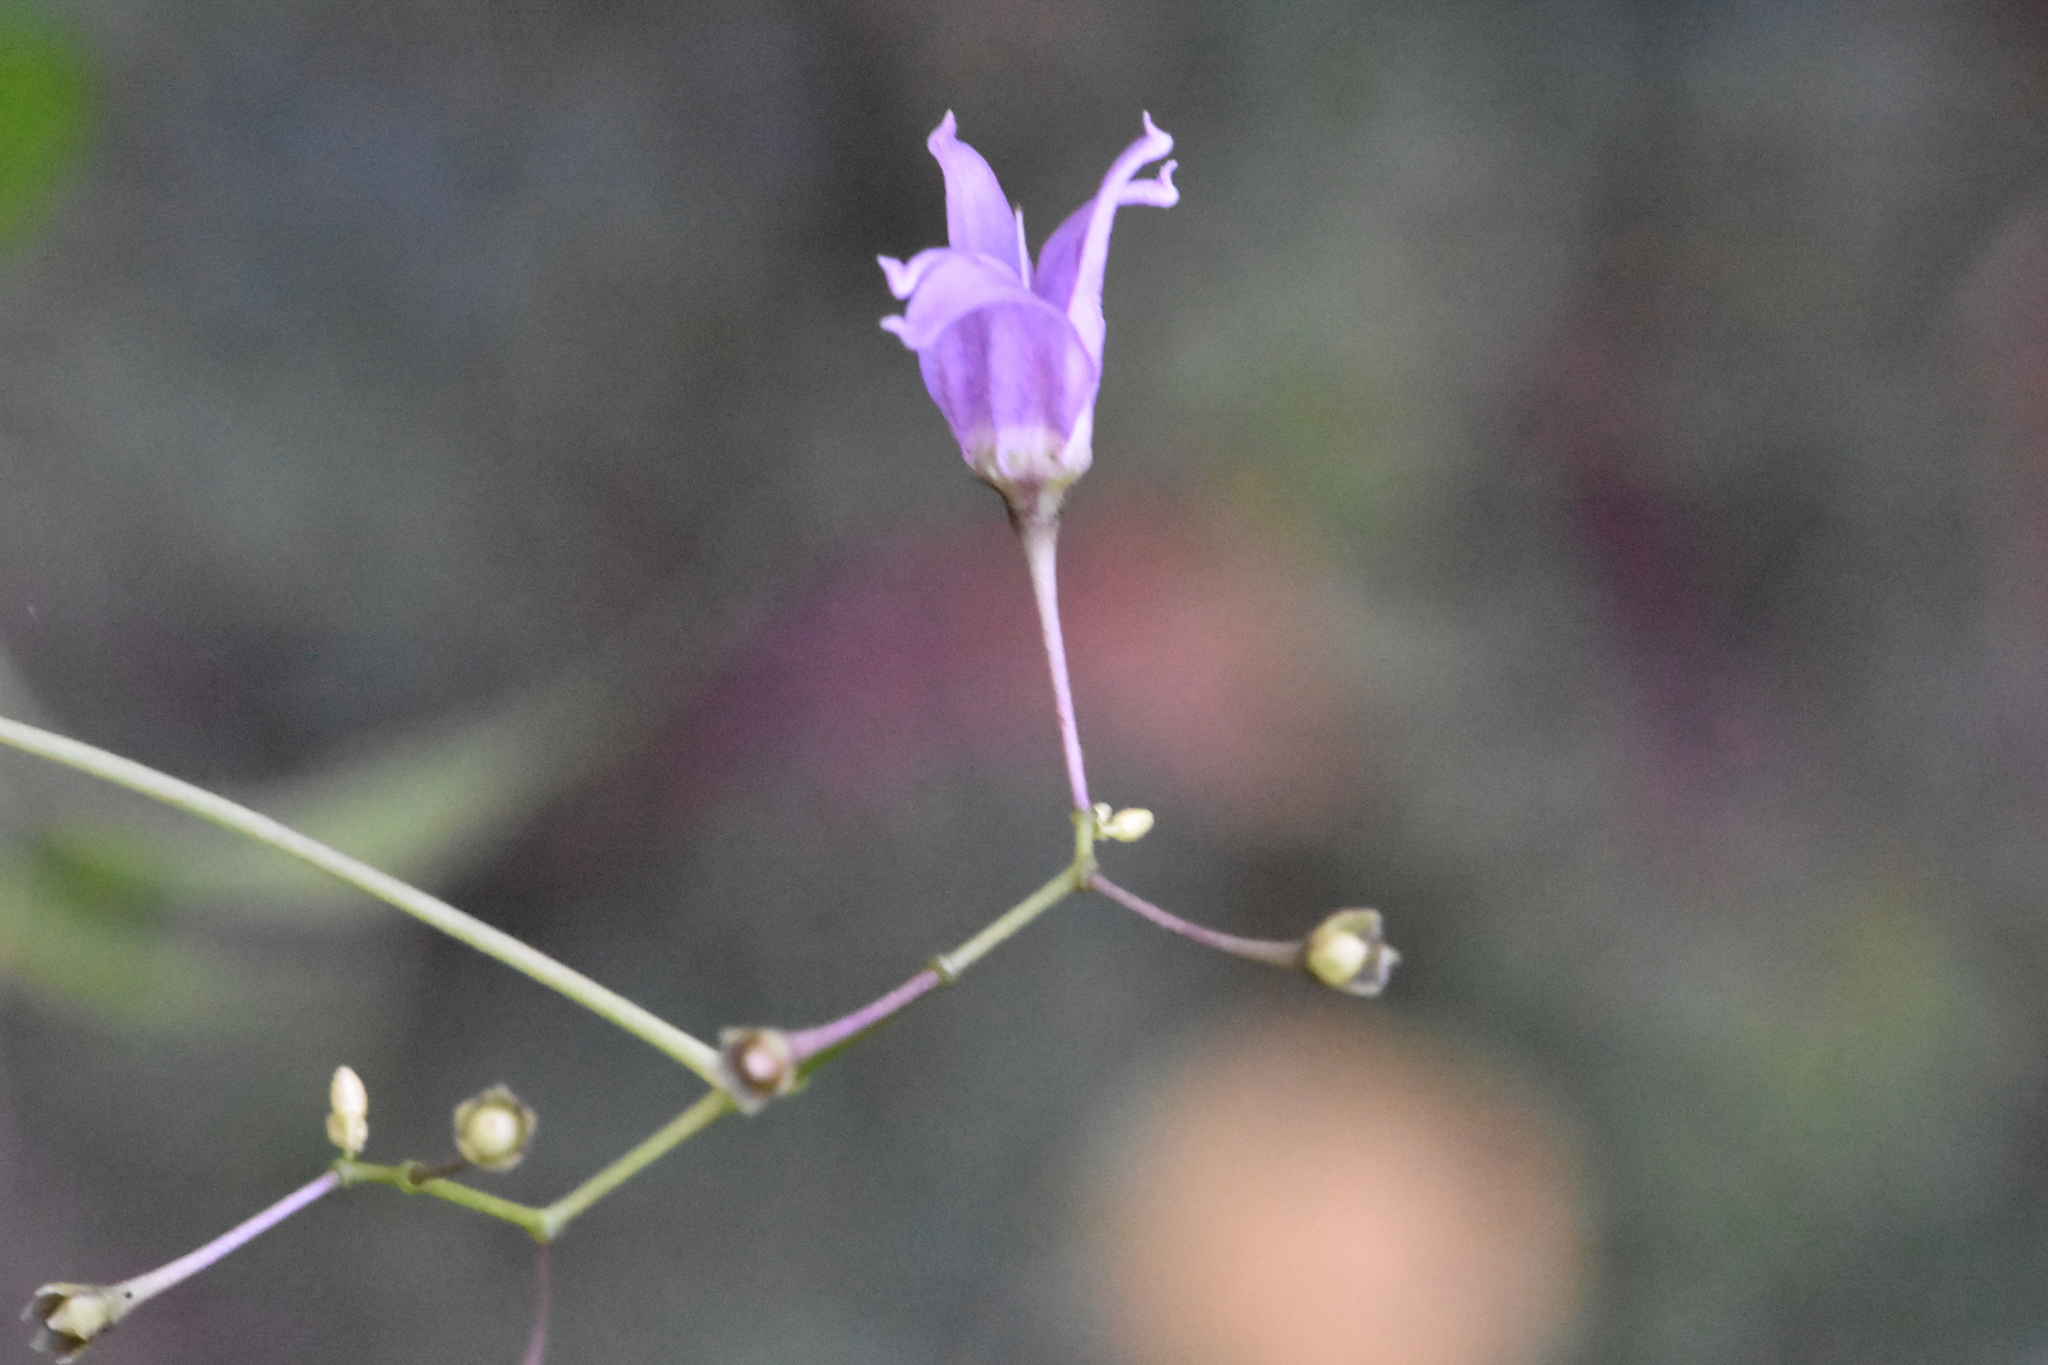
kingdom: Plantae
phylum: Tracheophyta
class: Magnoliopsida
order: Solanales
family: Solanaceae
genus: Solanum
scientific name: Solanum dulcamara
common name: Climbing nightshade
